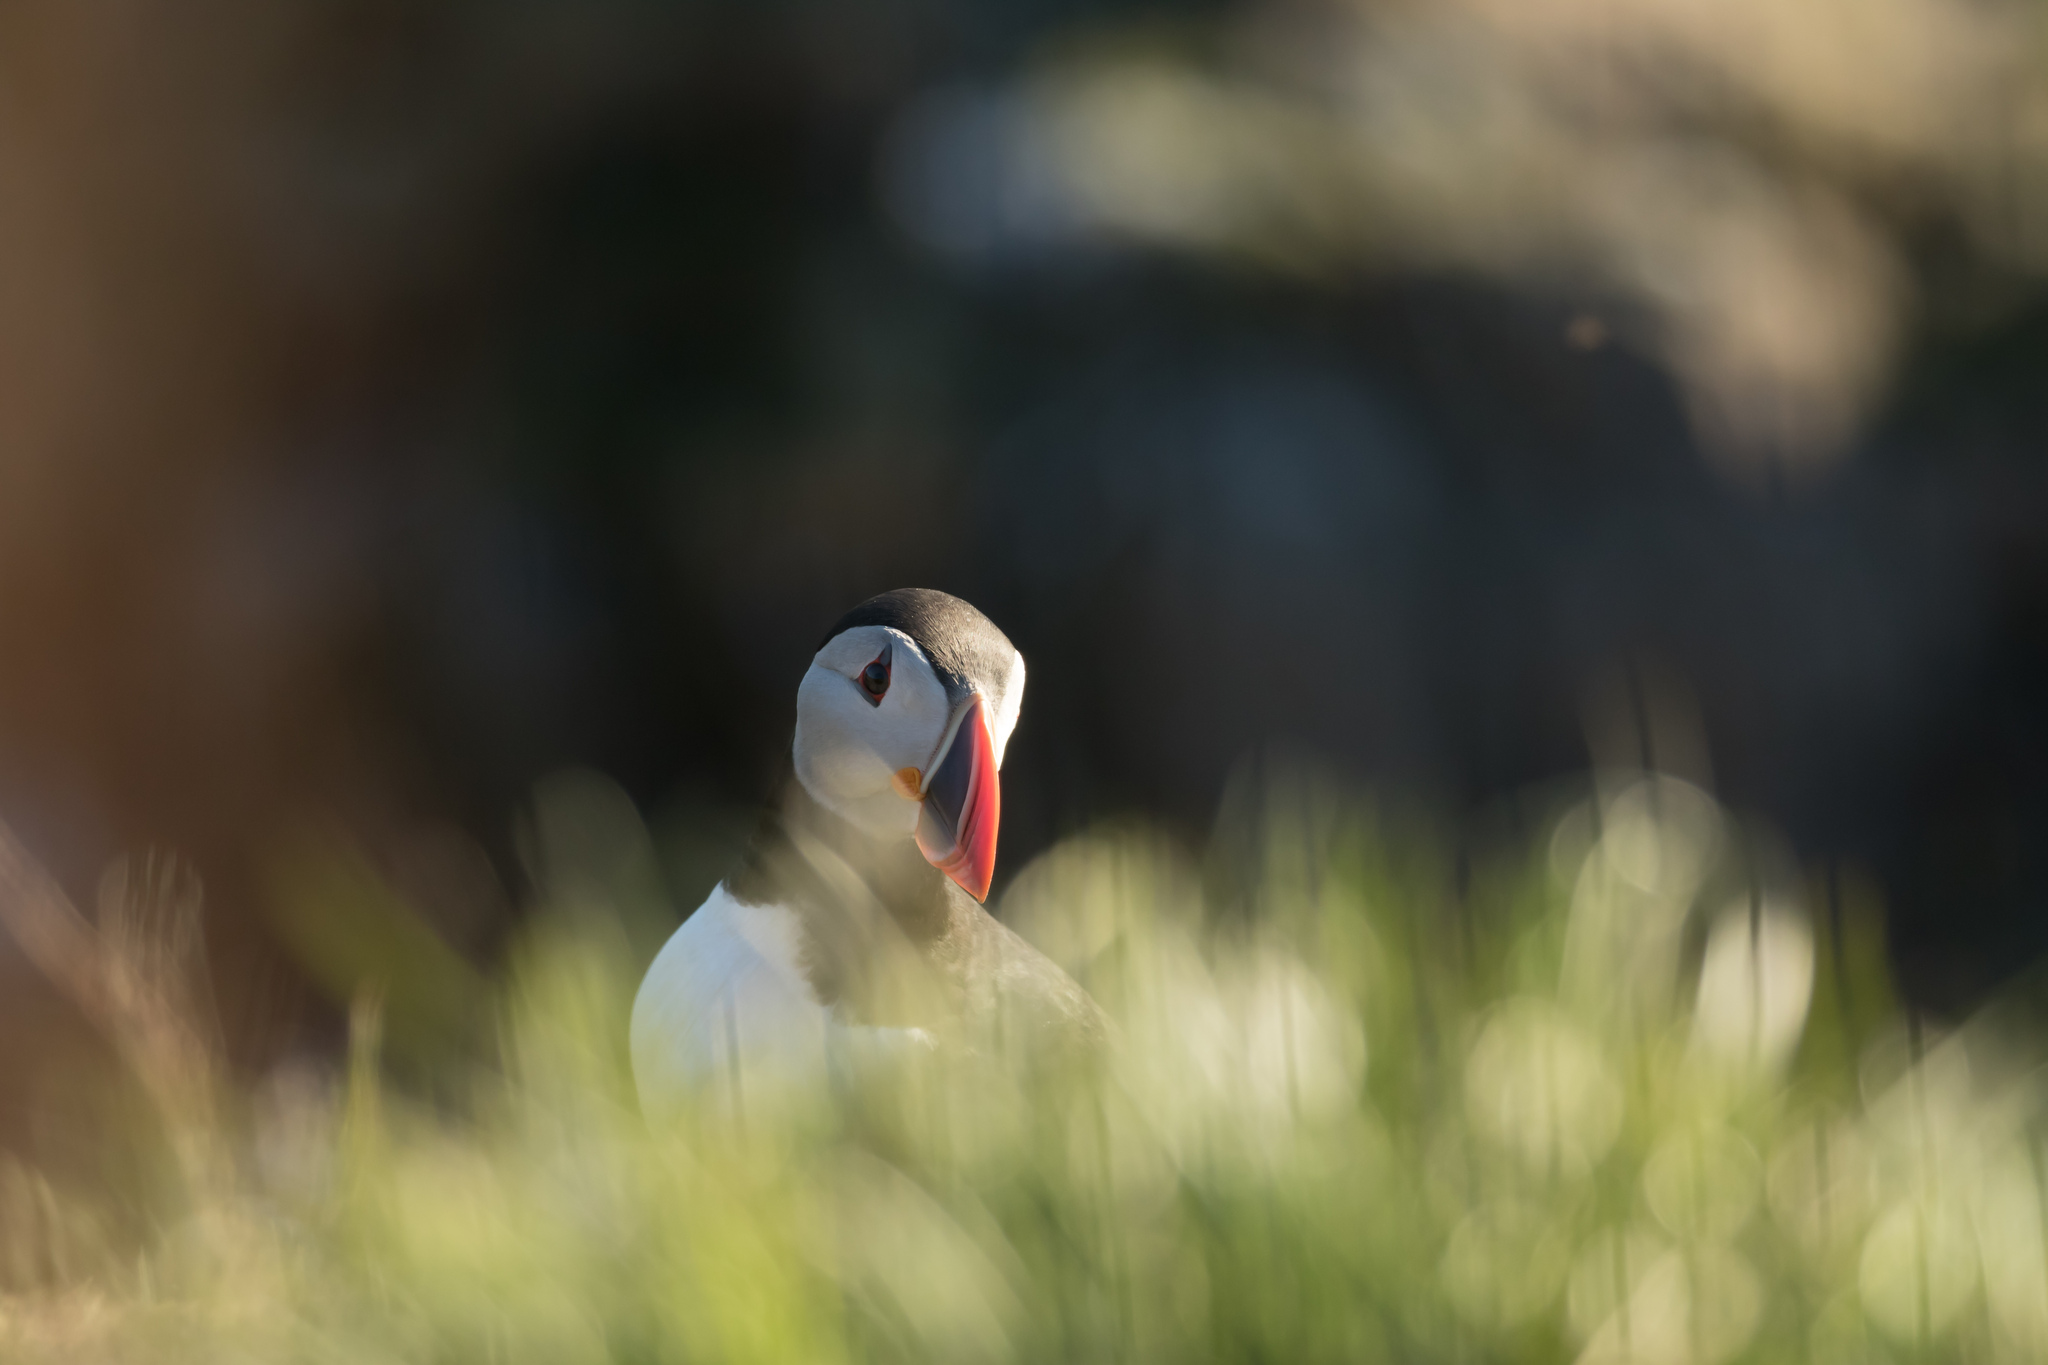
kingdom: Animalia
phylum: Chordata
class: Aves
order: Charadriiformes
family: Alcidae
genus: Fratercula
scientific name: Fratercula arctica
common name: Atlantic puffin
